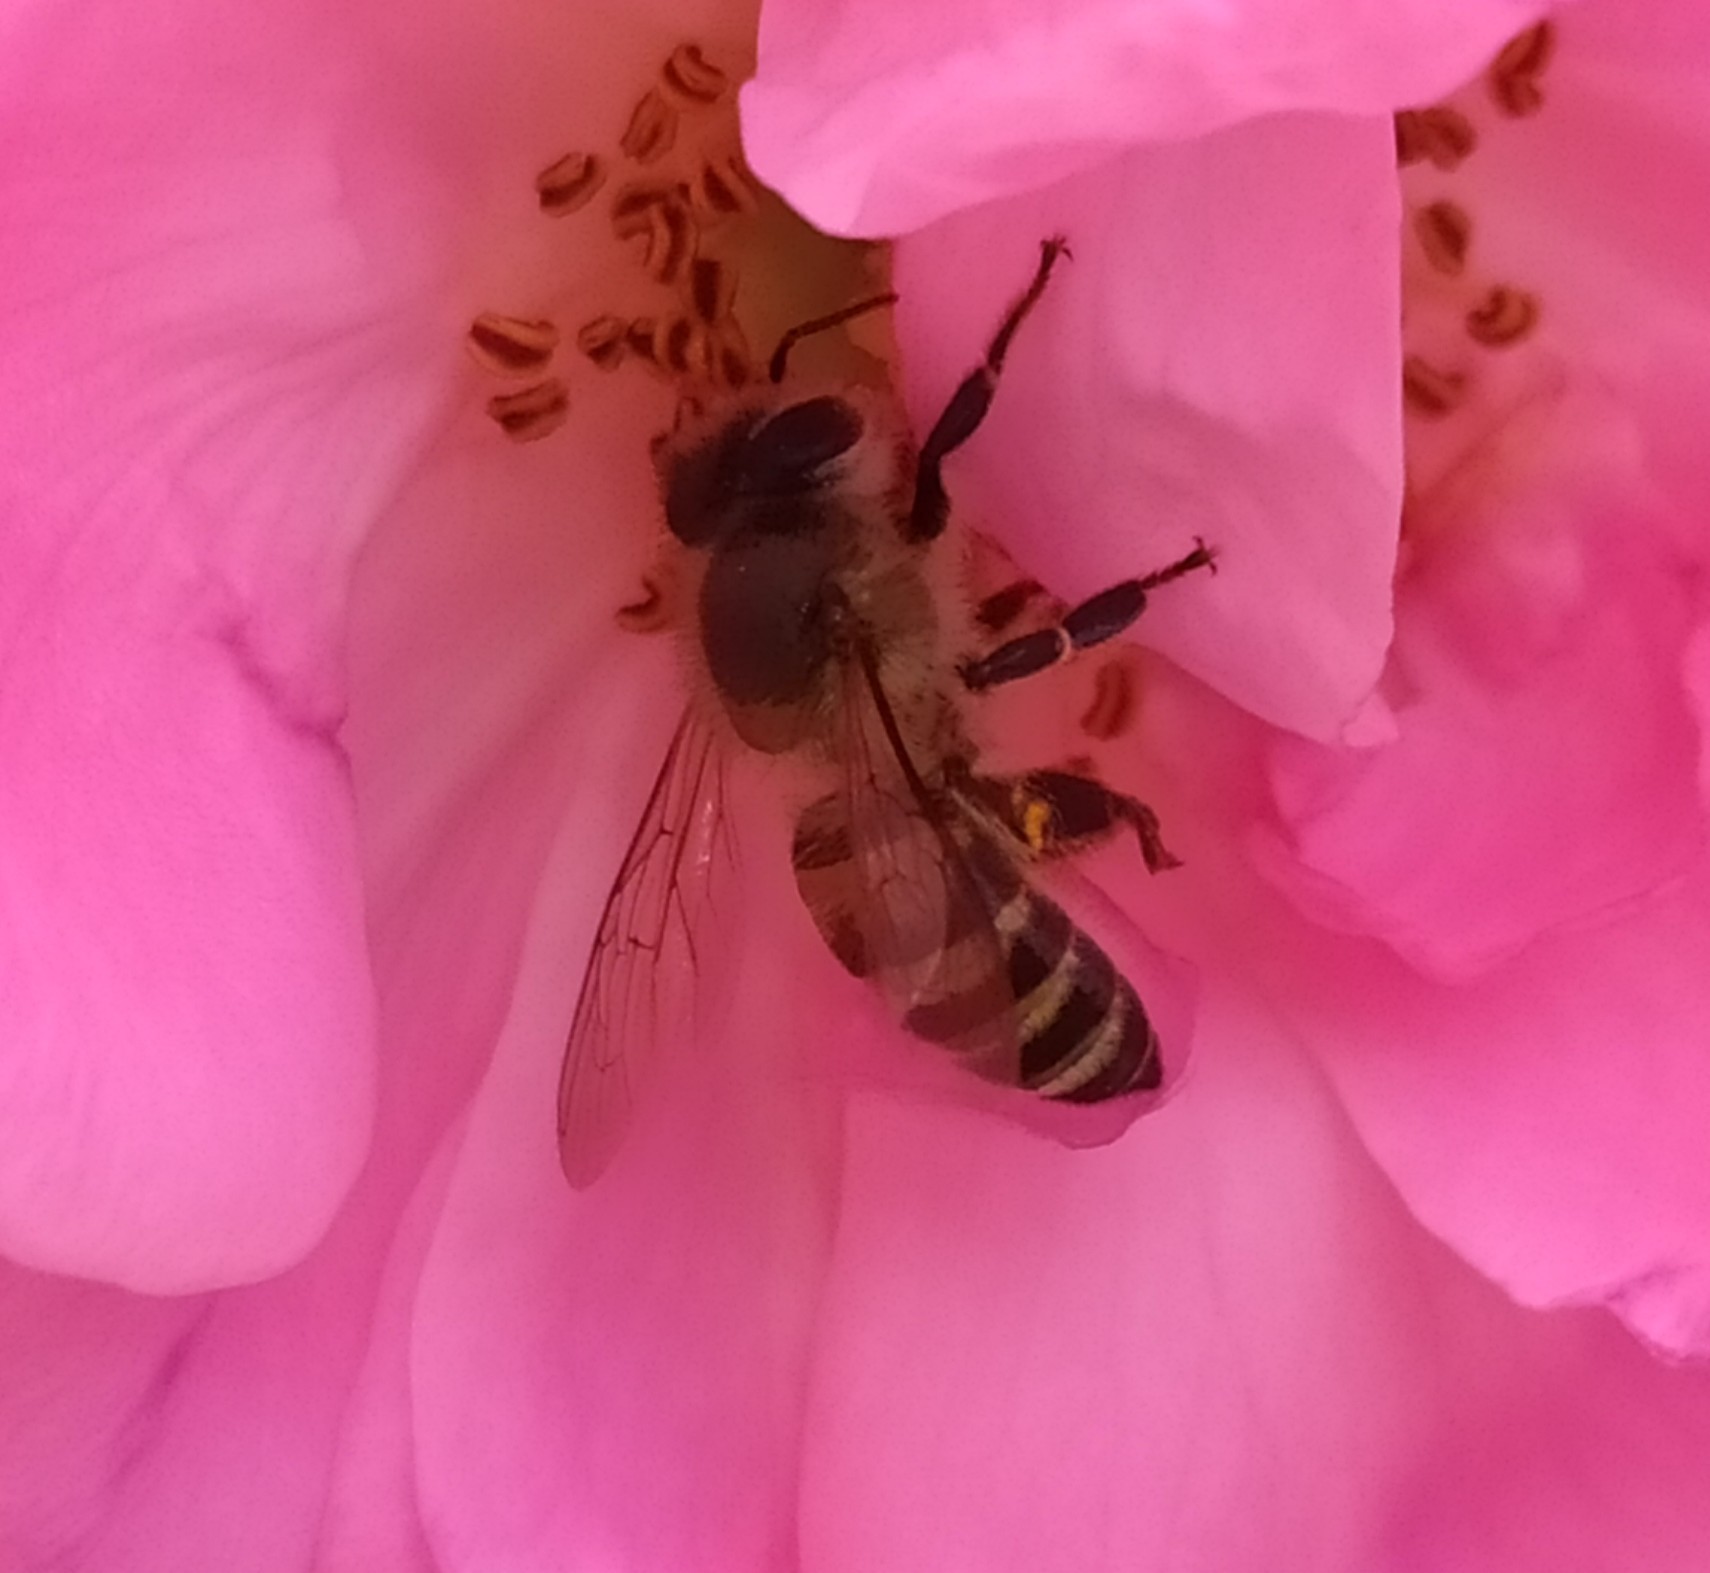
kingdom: Animalia
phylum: Arthropoda
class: Insecta
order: Hymenoptera
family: Apidae
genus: Apis
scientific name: Apis cerana
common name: Honey bee
